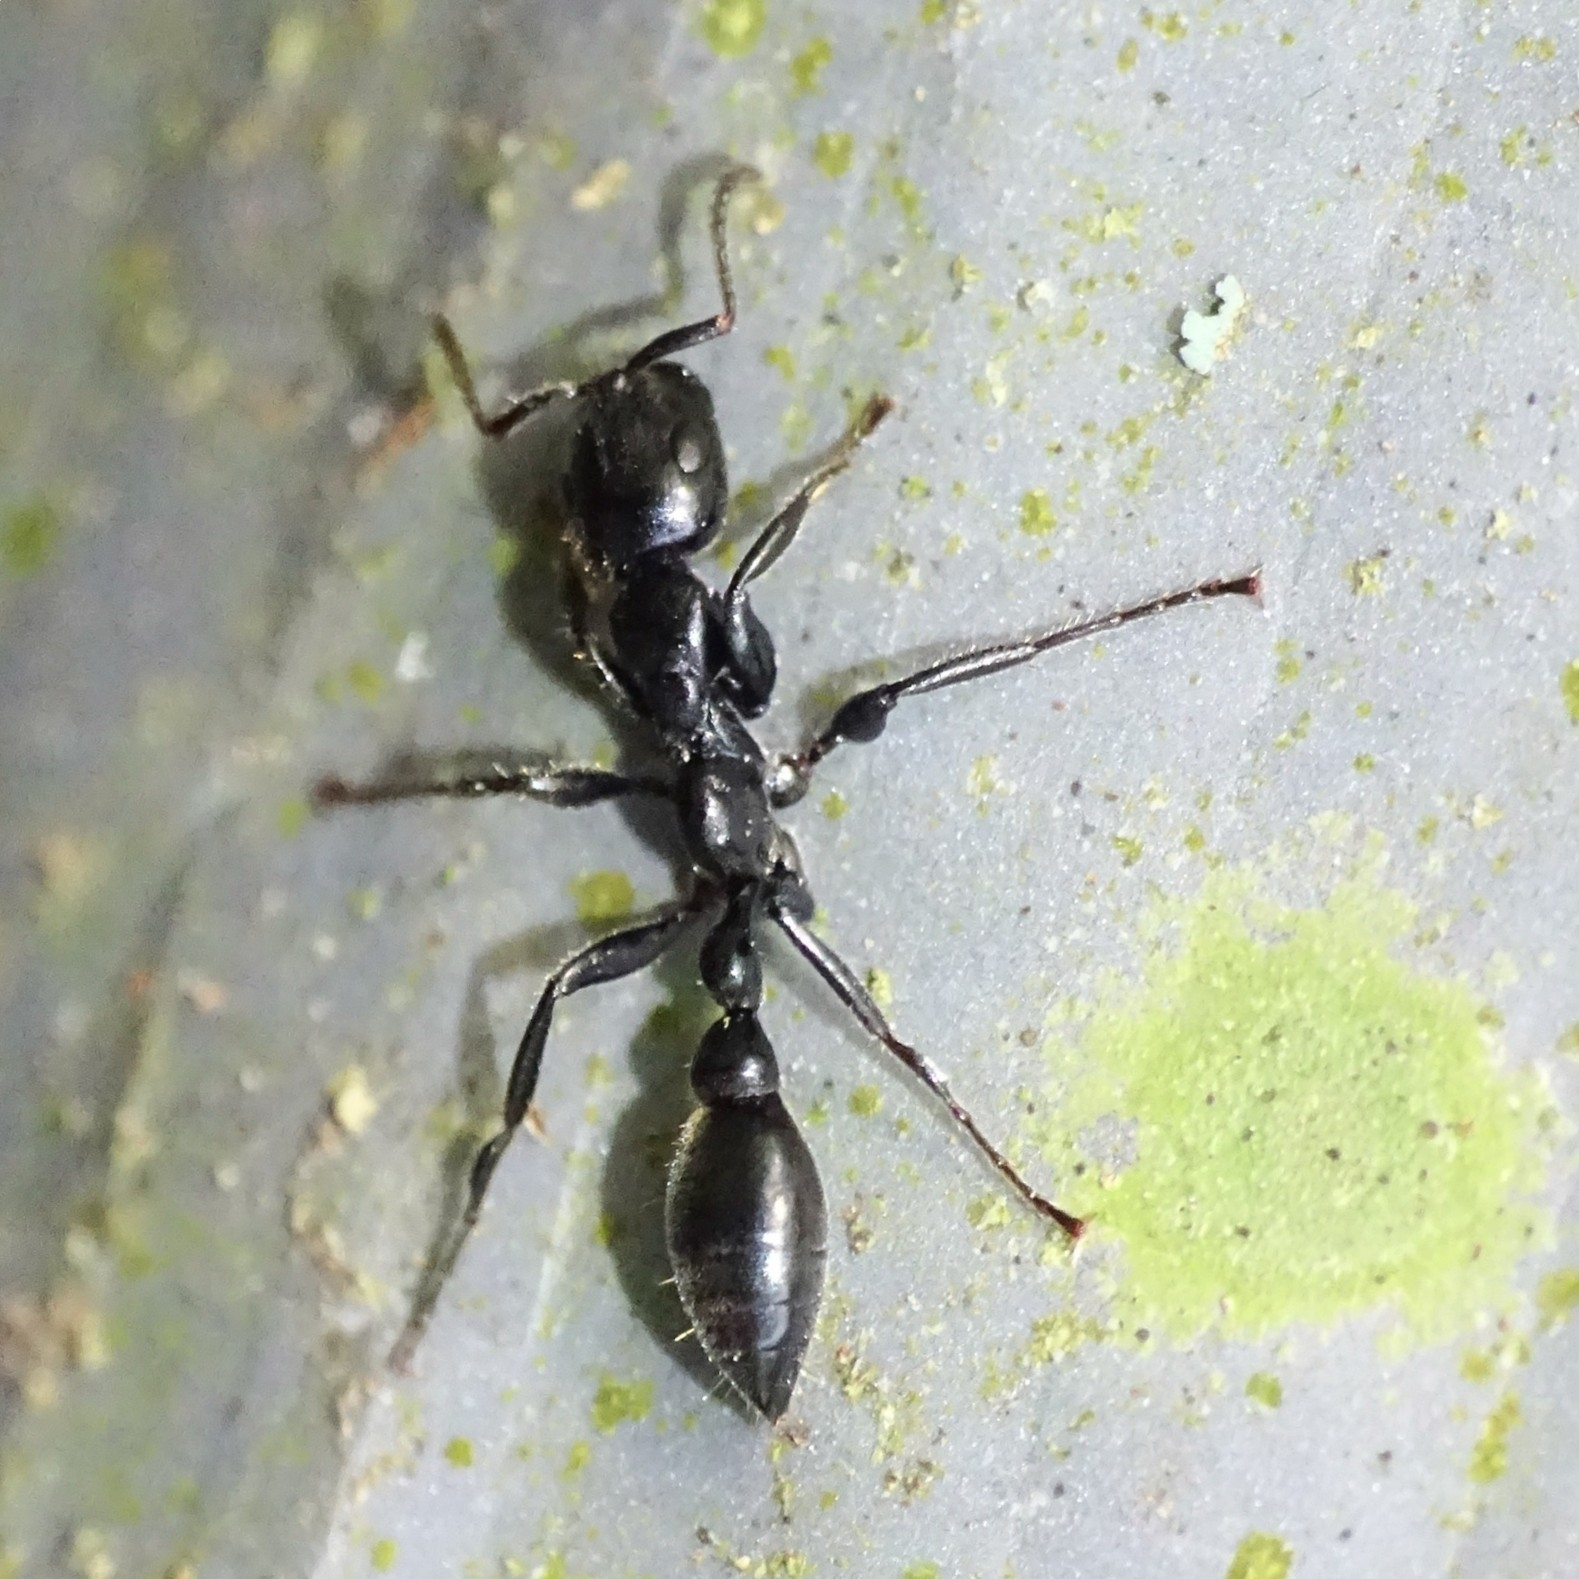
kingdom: Animalia
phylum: Arthropoda
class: Insecta
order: Hymenoptera
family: Formicidae
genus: Tetraponera
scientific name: Tetraponera nigra
